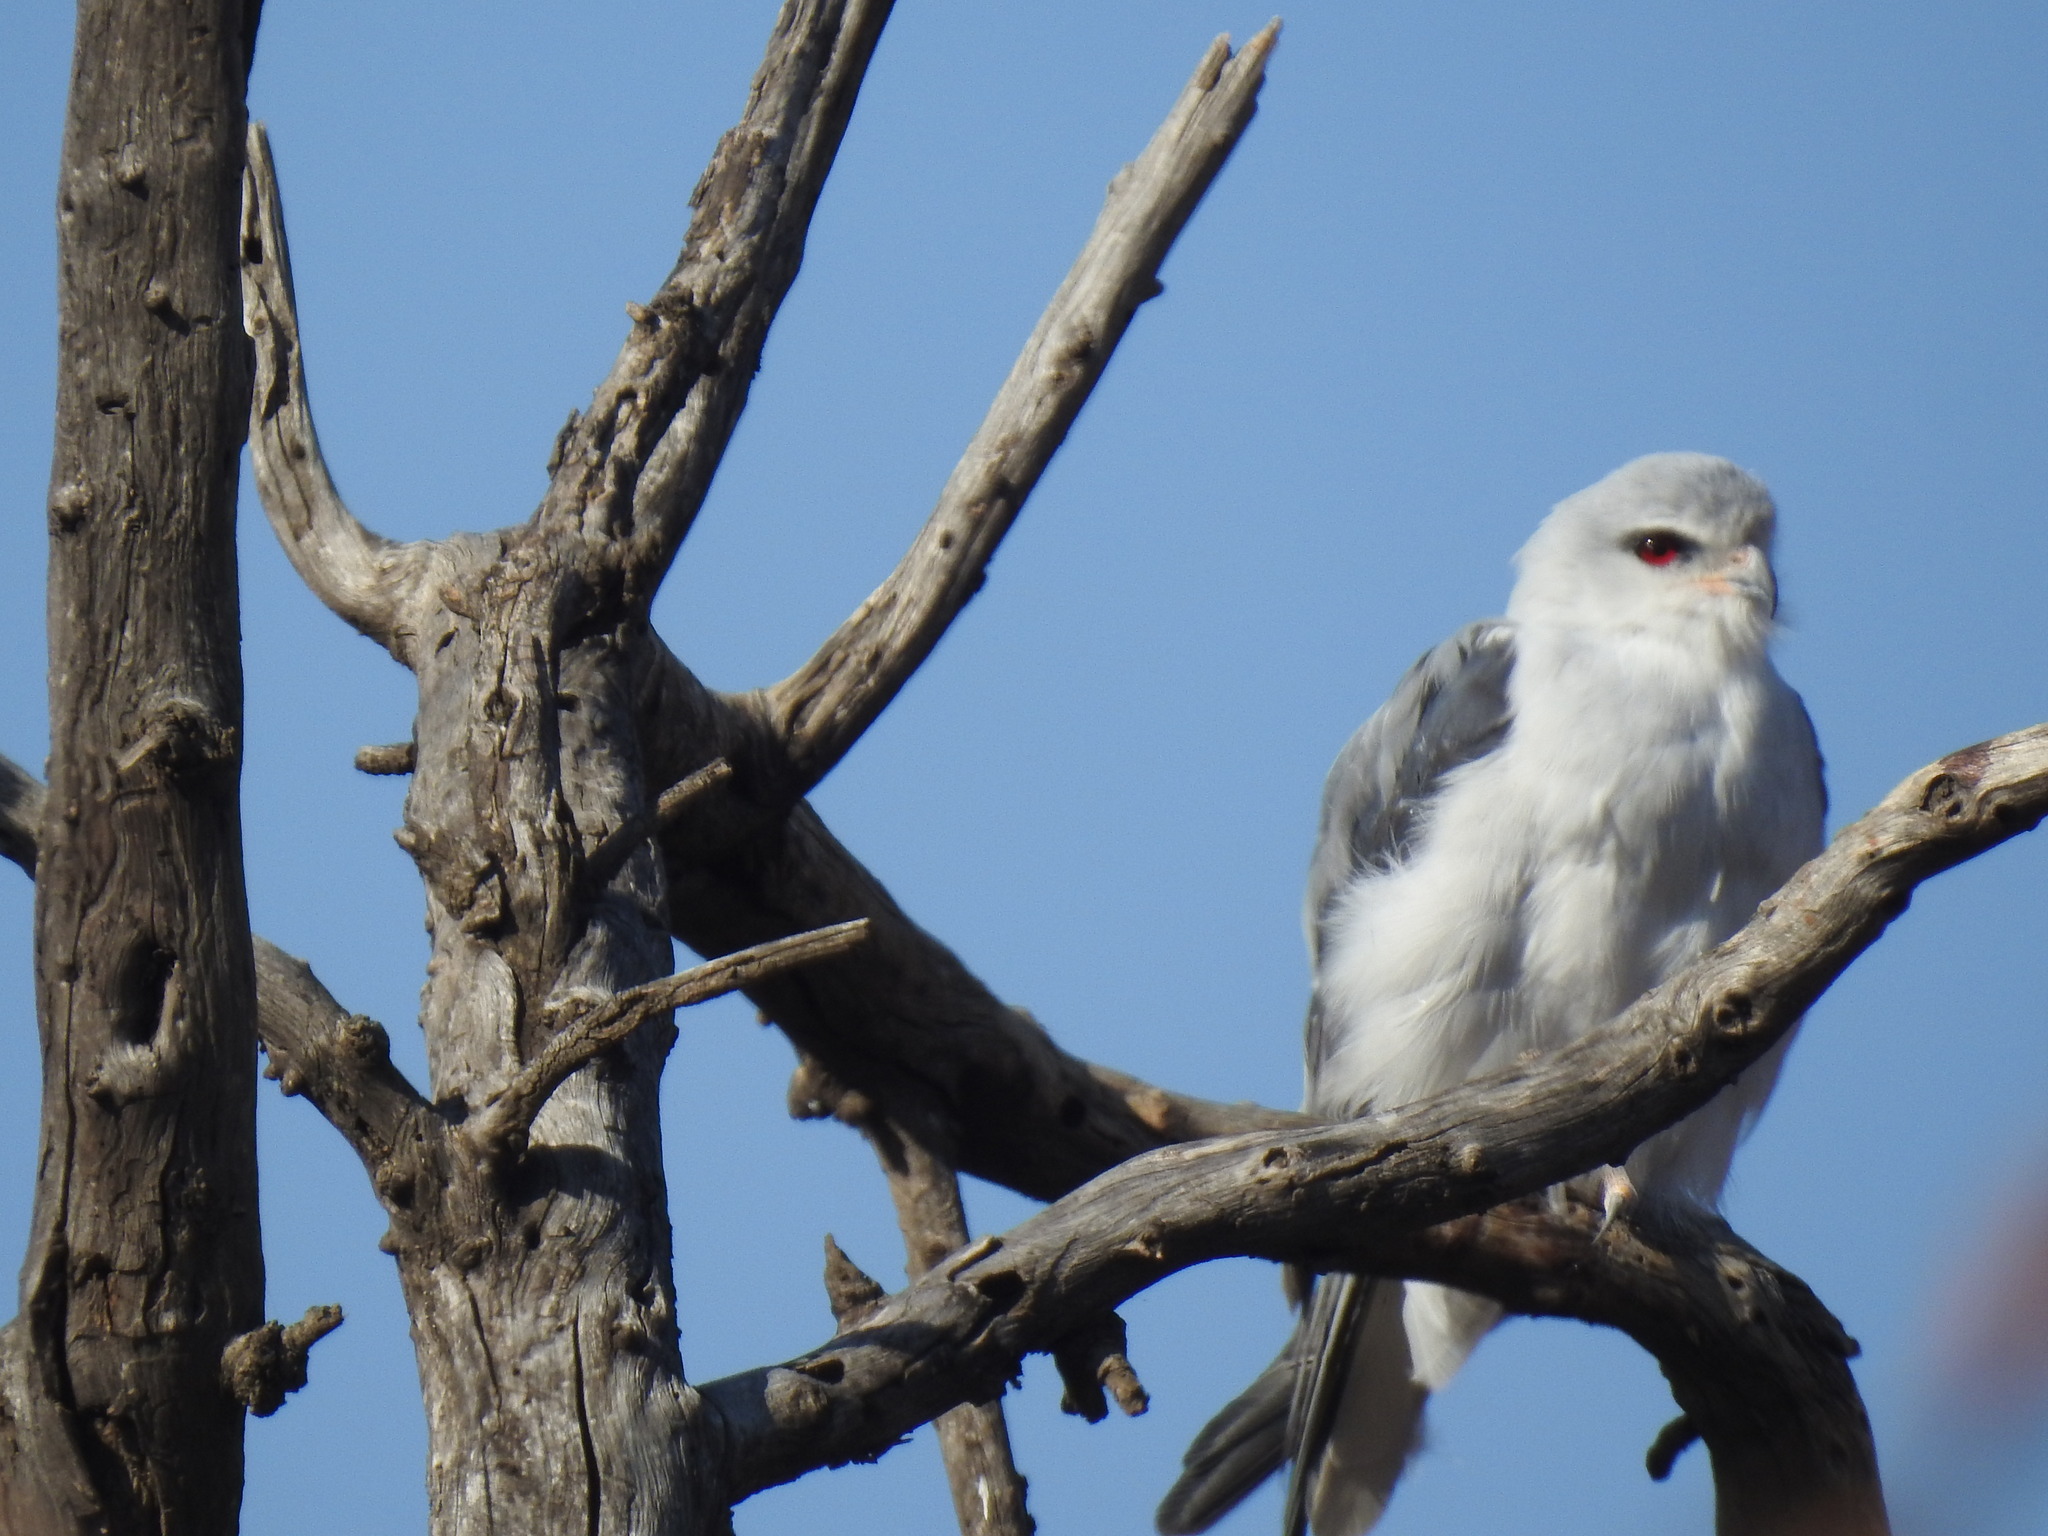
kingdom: Animalia
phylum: Chordata
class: Aves
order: Accipitriformes
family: Accipitridae
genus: Elanus
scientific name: Elanus caeruleus
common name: Black-winged kite
